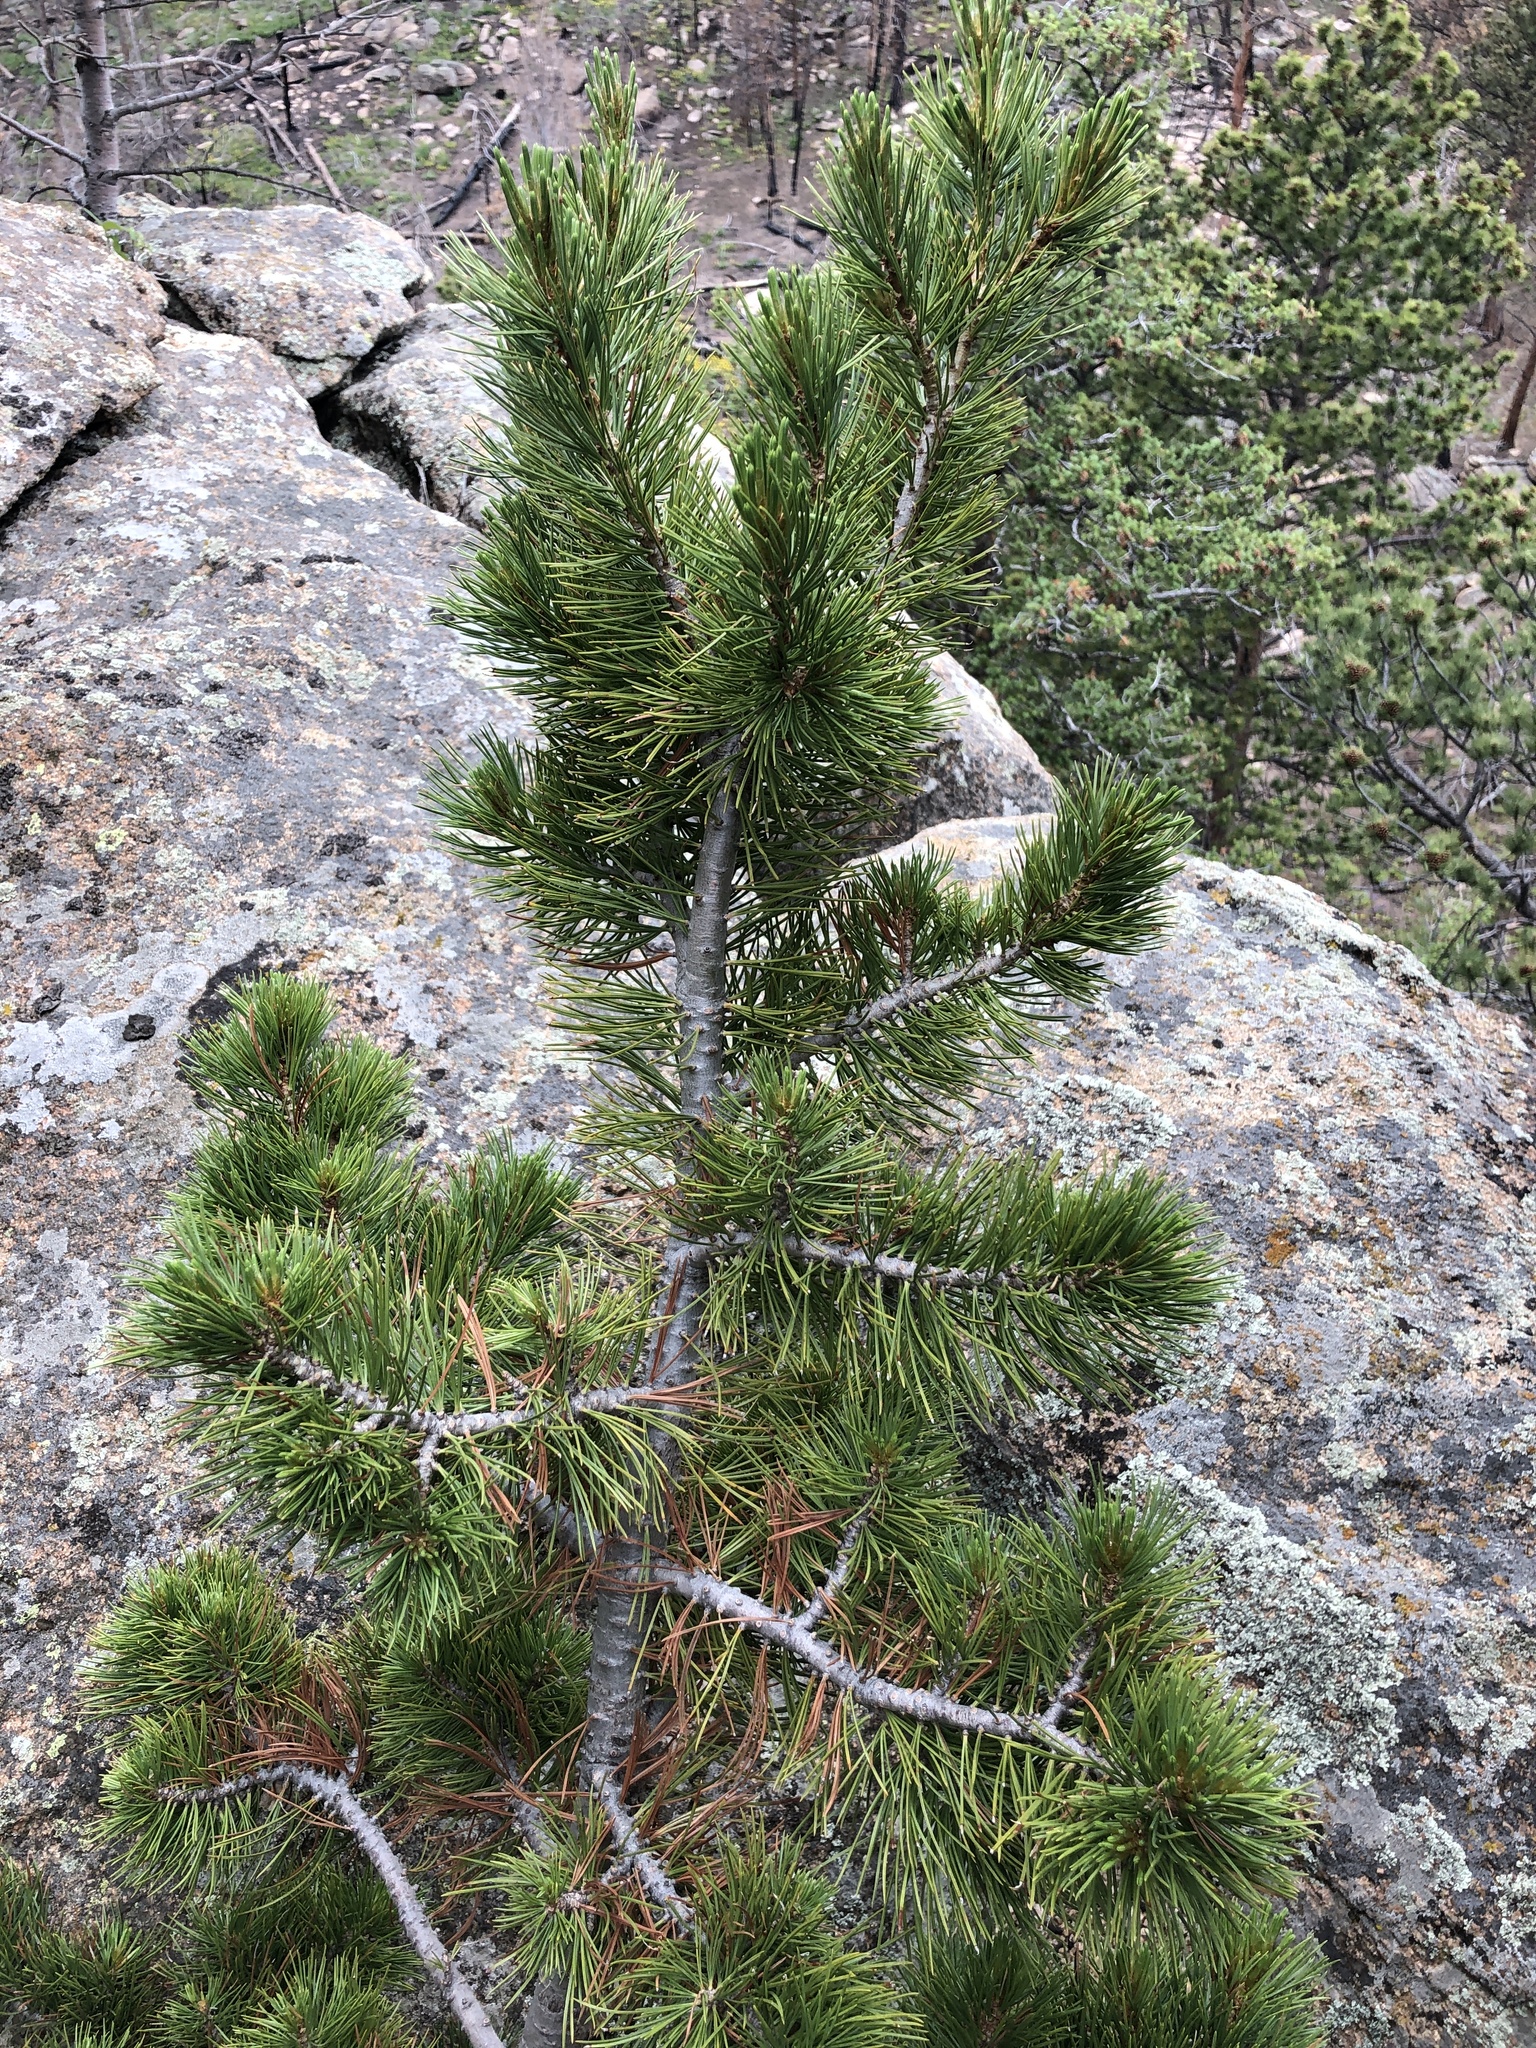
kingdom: Plantae
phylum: Tracheophyta
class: Pinopsida
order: Pinales
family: Pinaceae
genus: Pinus
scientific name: Pinus flexilis
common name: Limber pine
